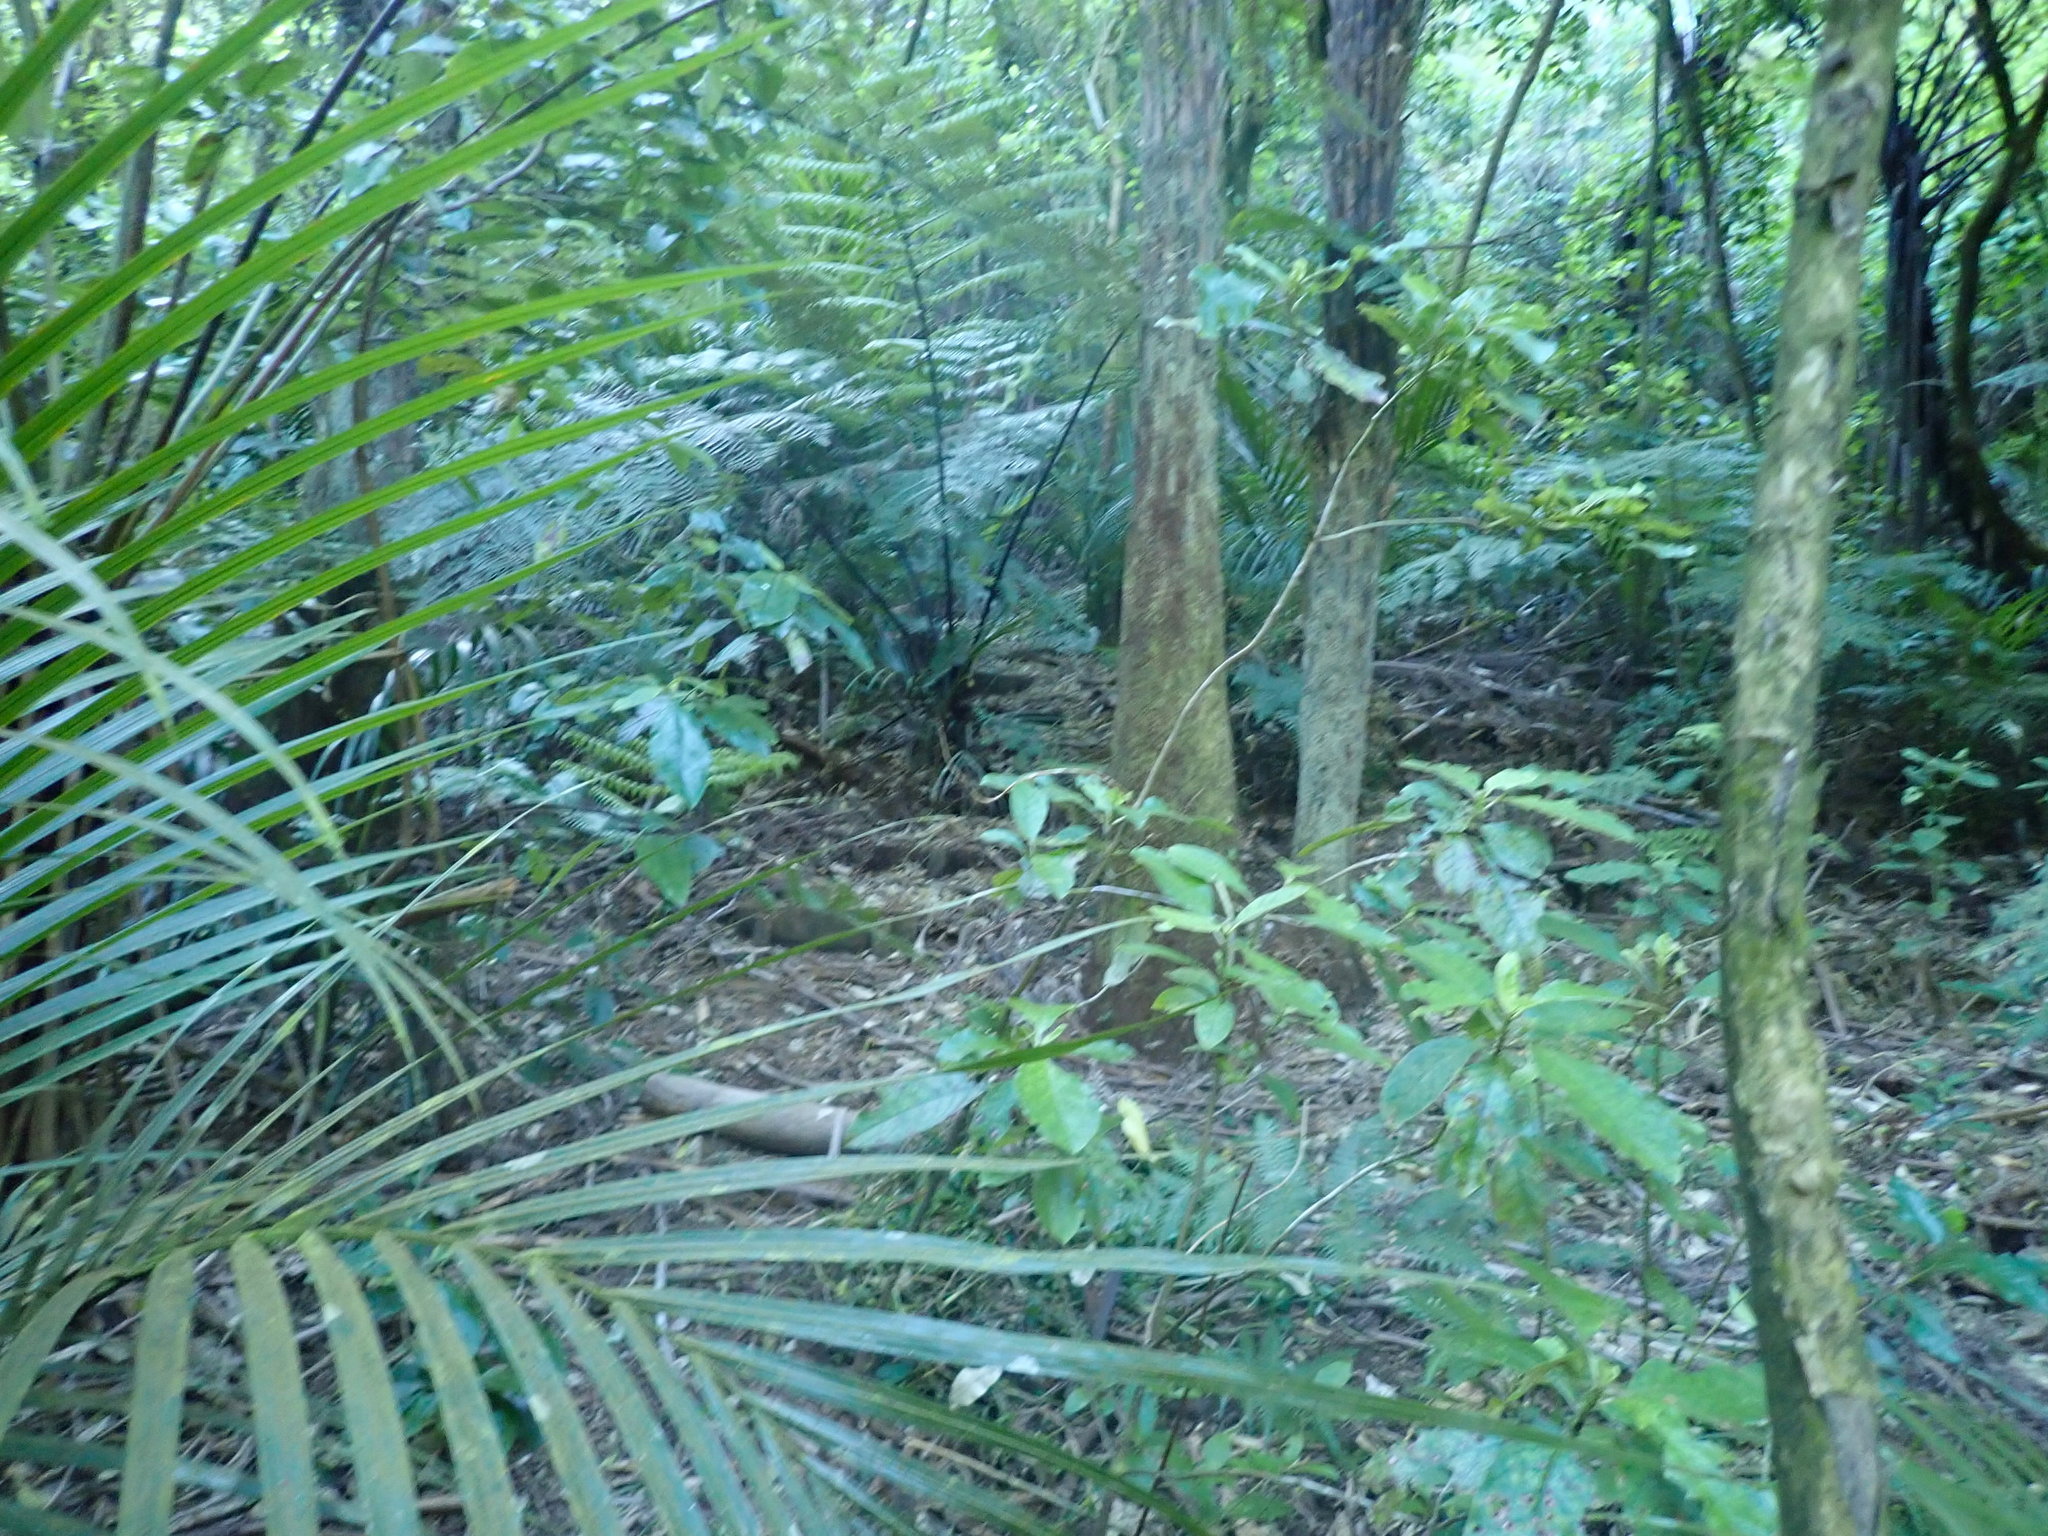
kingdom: Plantae
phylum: Tracheophyta
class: Magnoliopsida
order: Gentianales
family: Rubiaceae
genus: Coprosma
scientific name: Coprosma autumnalis
